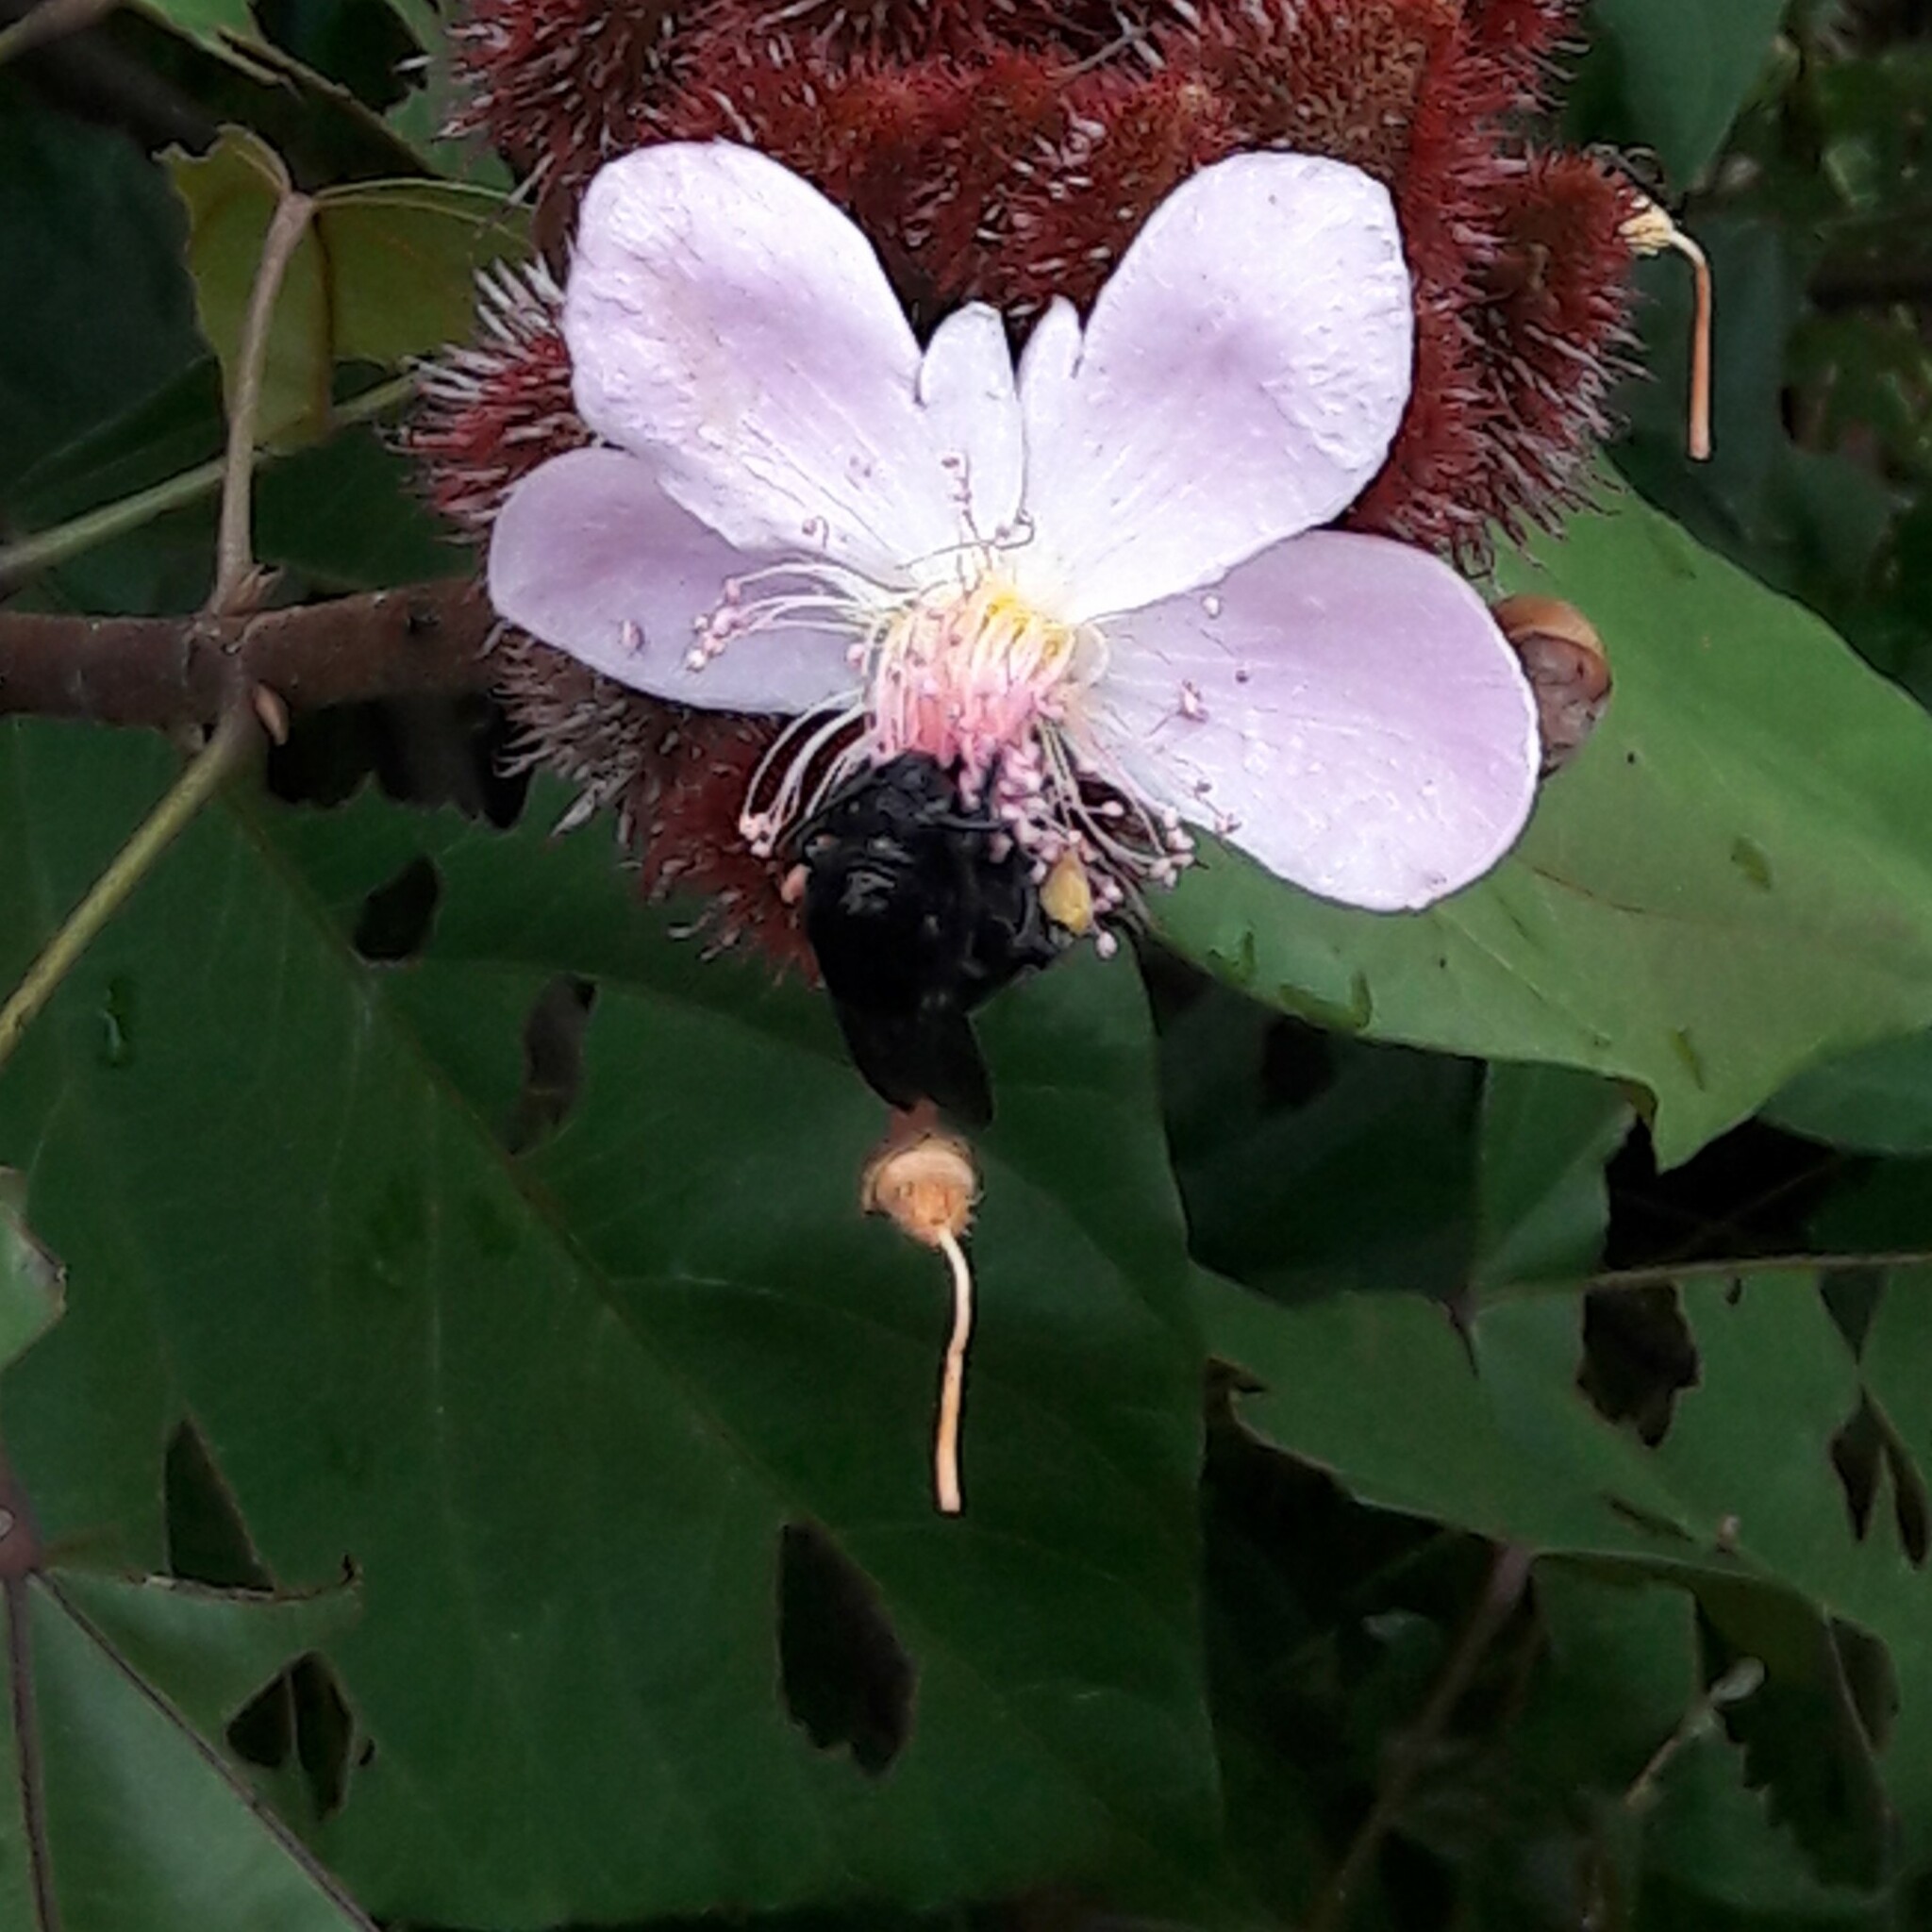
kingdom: Animalia
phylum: Arthropoda
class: Insecta
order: Hymenoptera
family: Apidae
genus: Eulaema
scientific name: Eulaema nigrita
